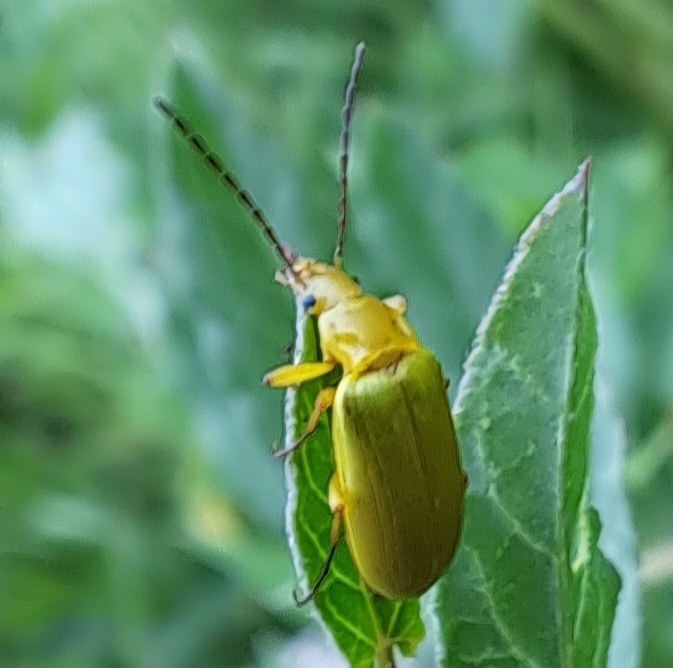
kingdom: Animalia
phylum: Arthropoda
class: Insecta
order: Coleoptera
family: Tenebrionidae
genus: Cteniopus
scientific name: Cteniopus sulphureus
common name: Sulphur beetle
